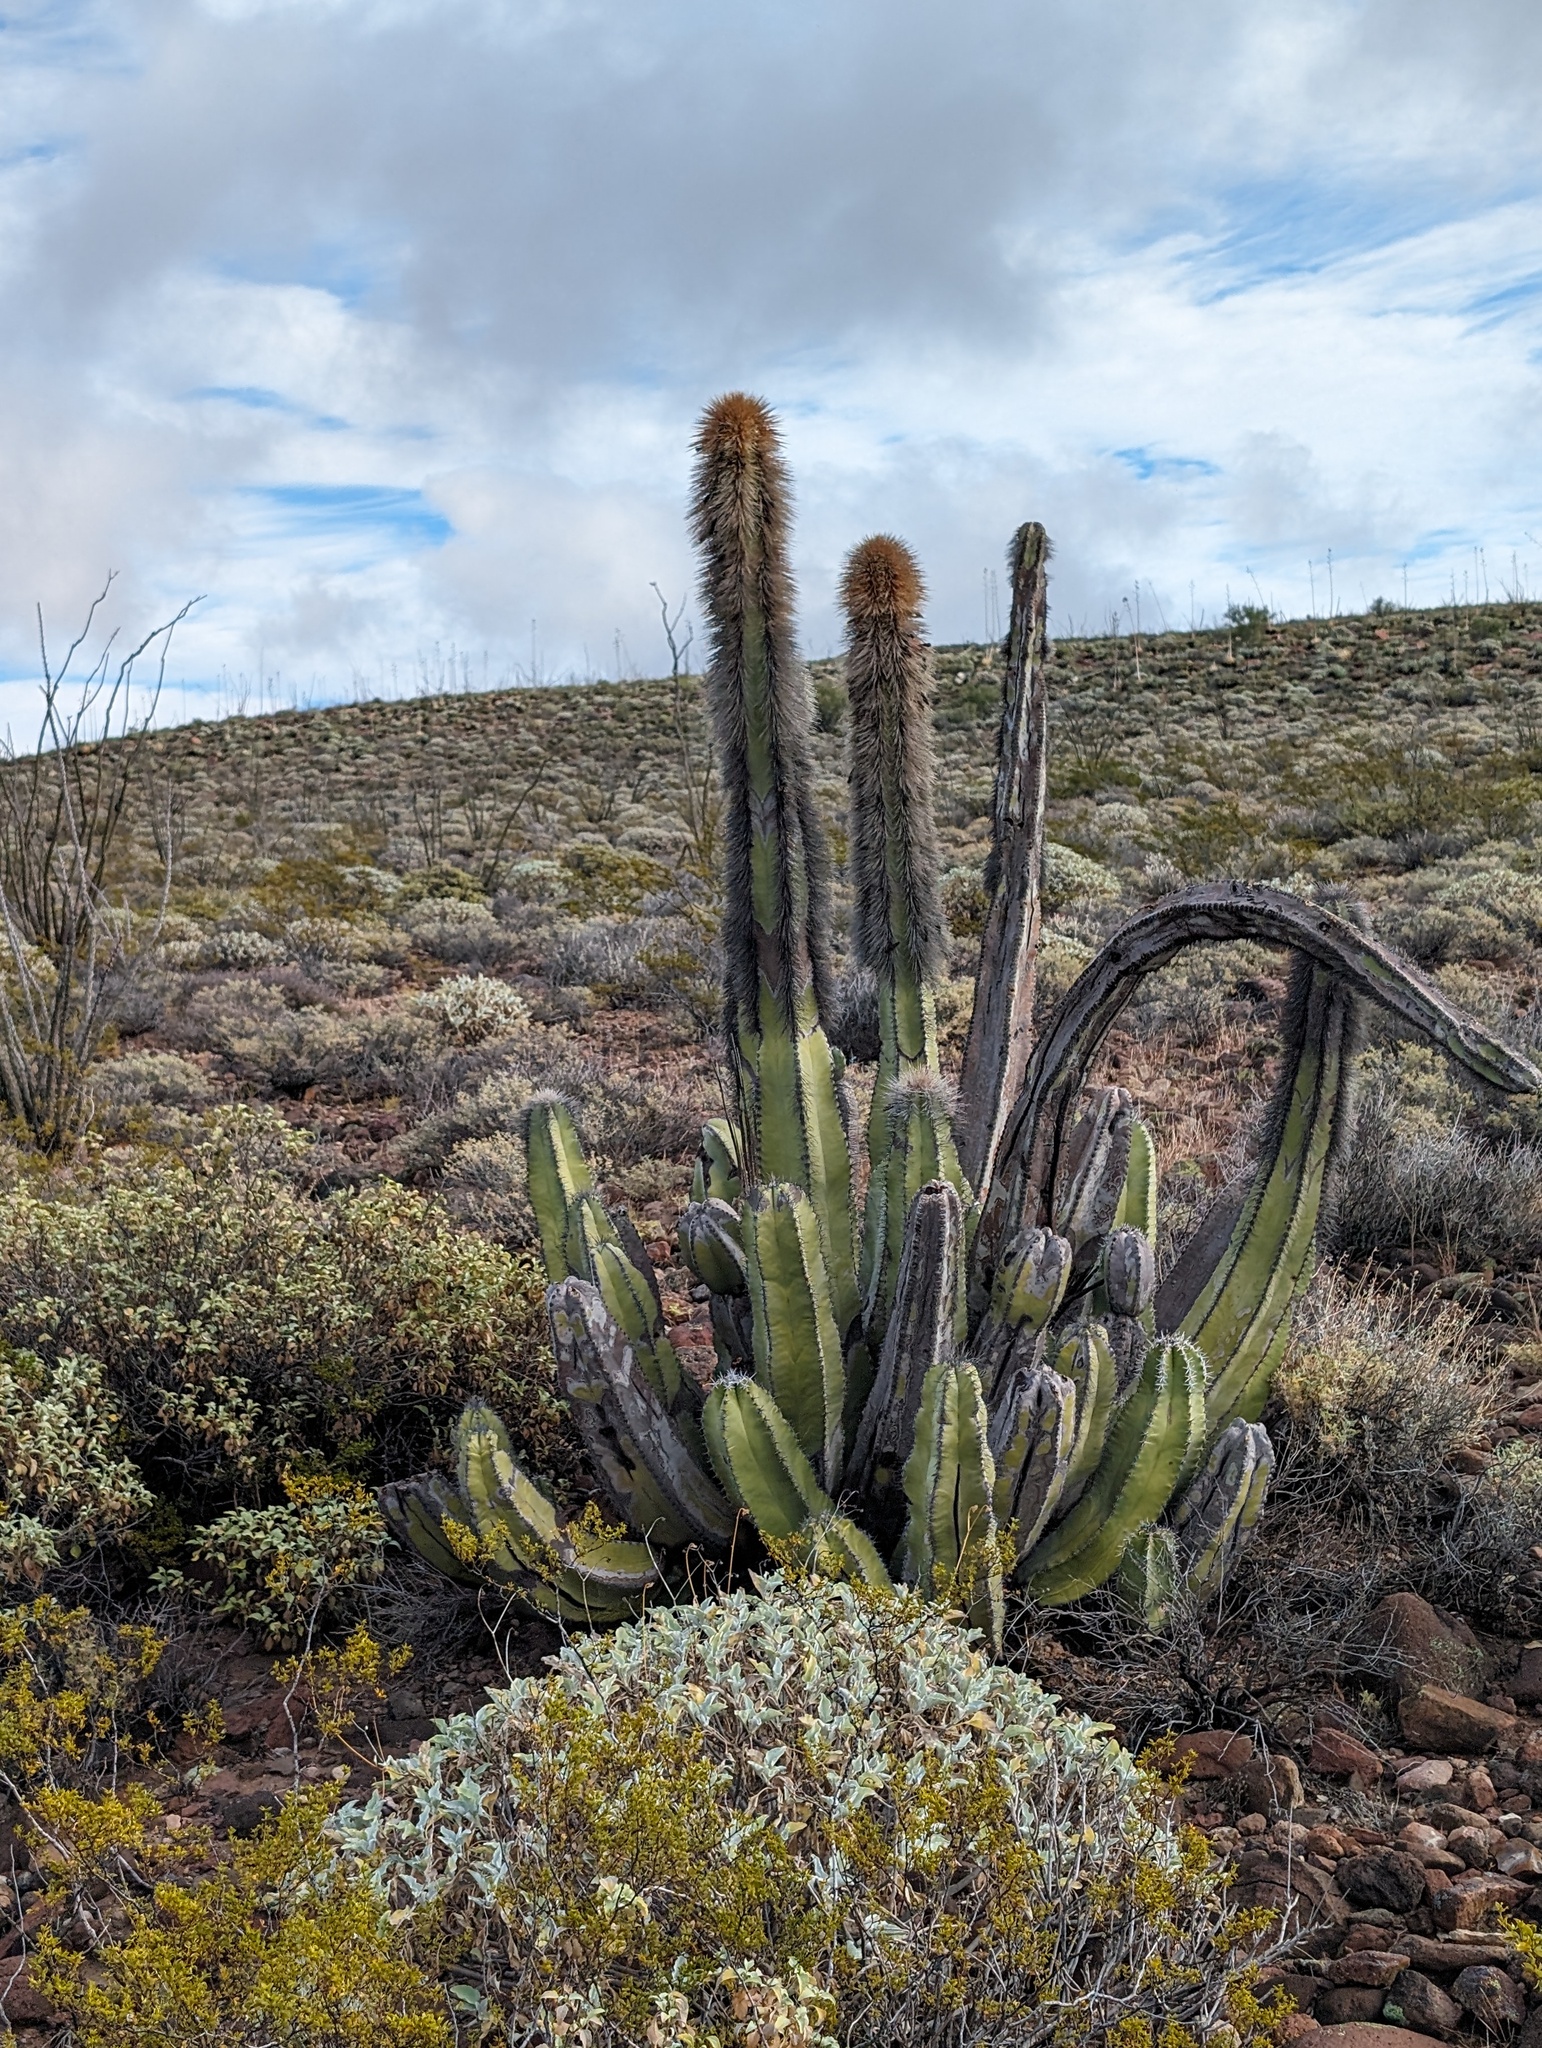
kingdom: Plantae
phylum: Tracheophyta
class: Magnoliopsida
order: Caryophyllales
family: Cactaceae
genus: Pachycereus
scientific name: Pachycereus schottii
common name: Senita cactus
